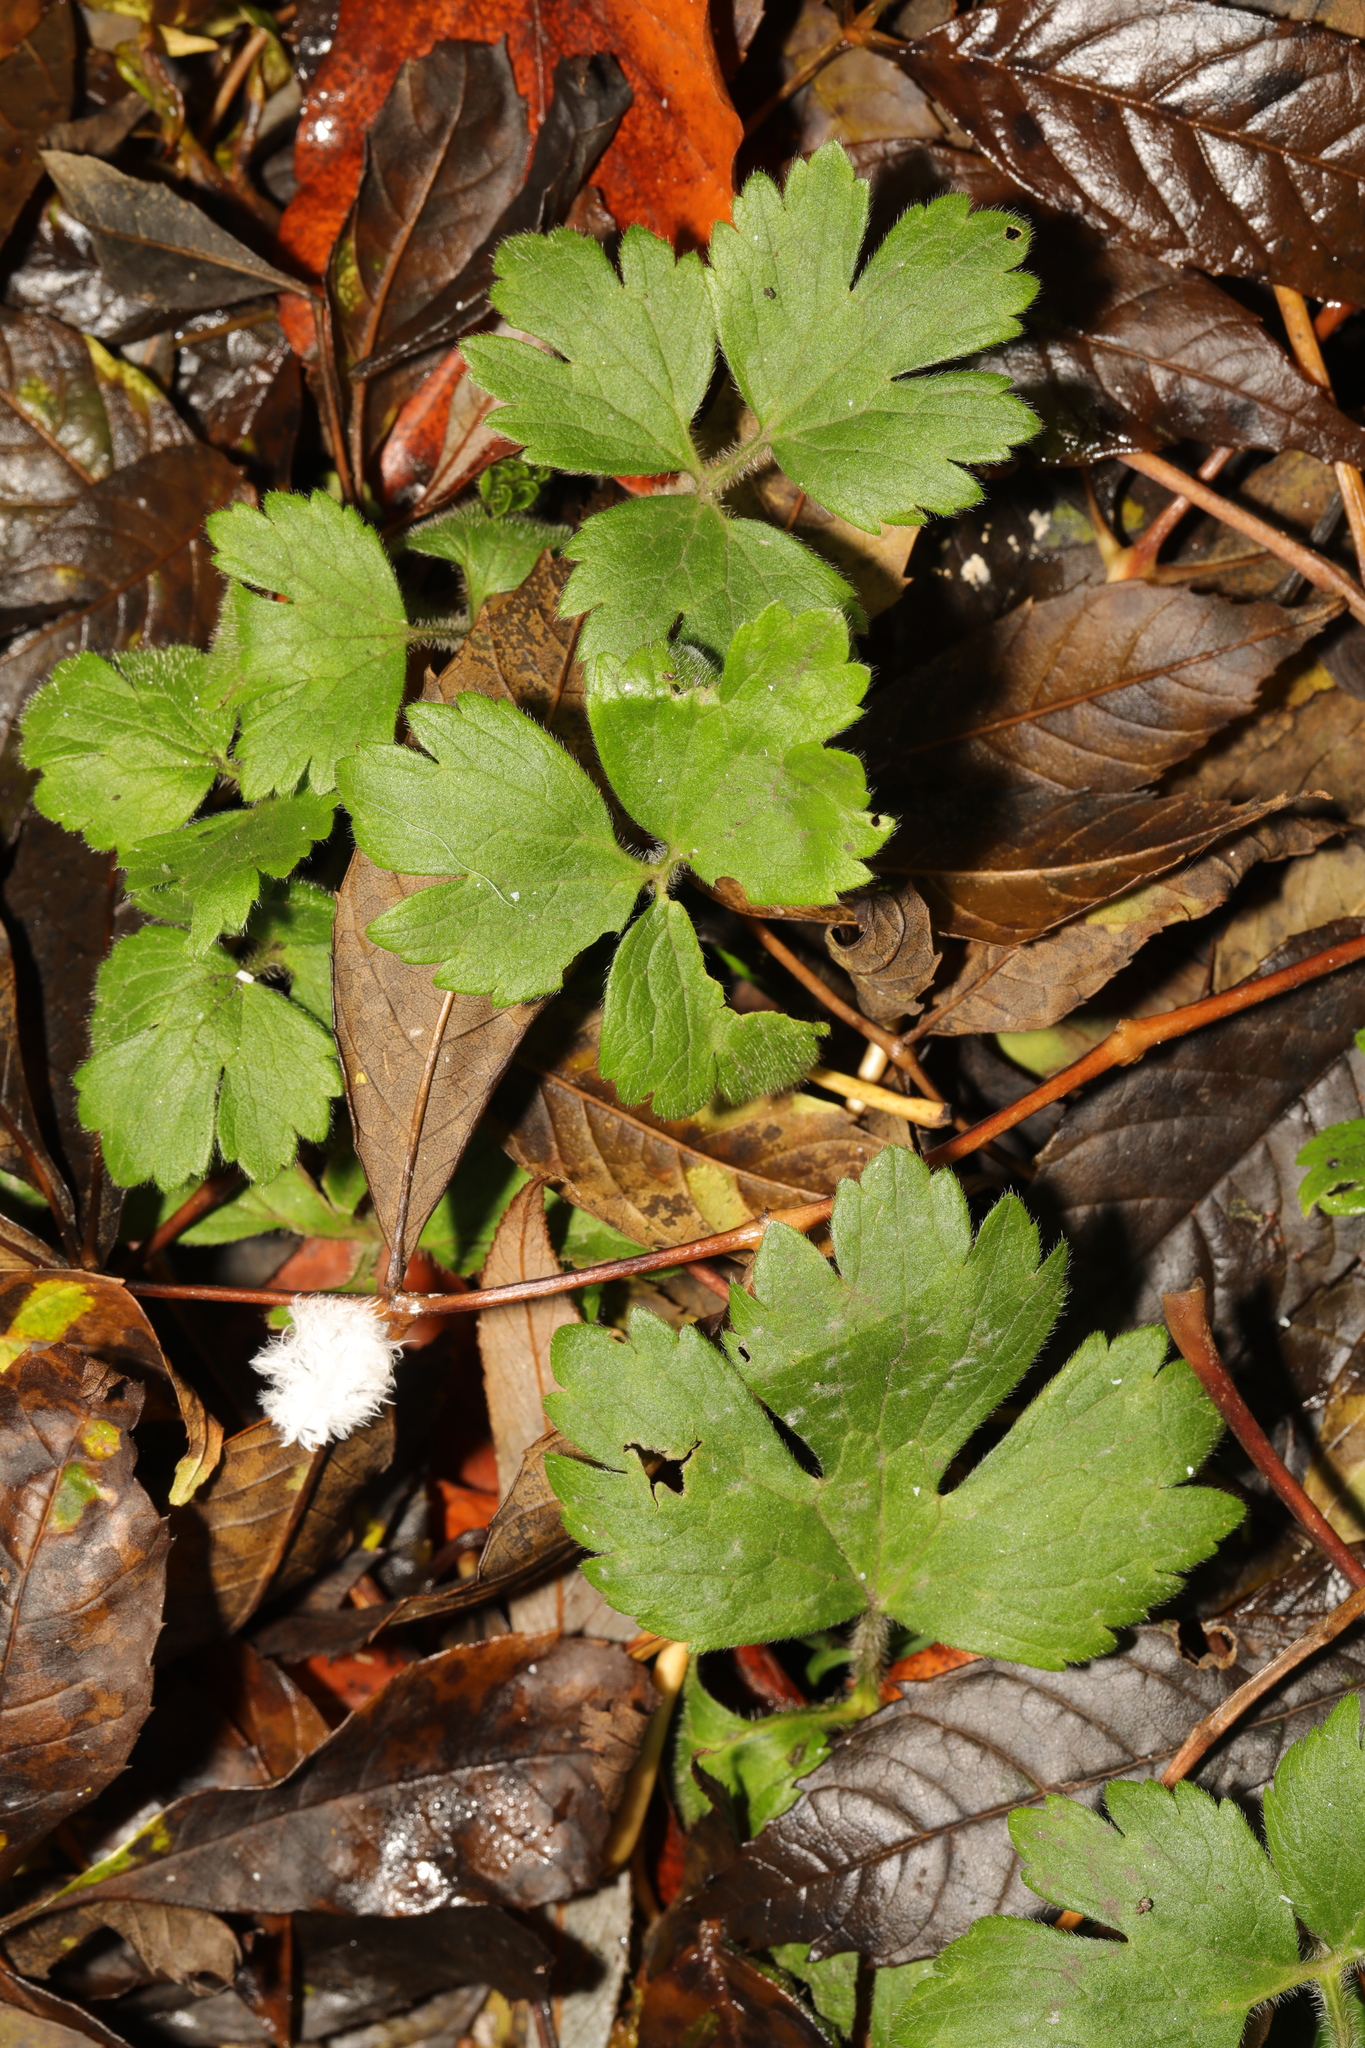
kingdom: Plantae
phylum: Tracheophyta
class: Magnoliopsida
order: Ranunculales
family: Ranunculaceae
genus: Ranunculus
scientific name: Ranunculus repens
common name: Creeping buttercup
